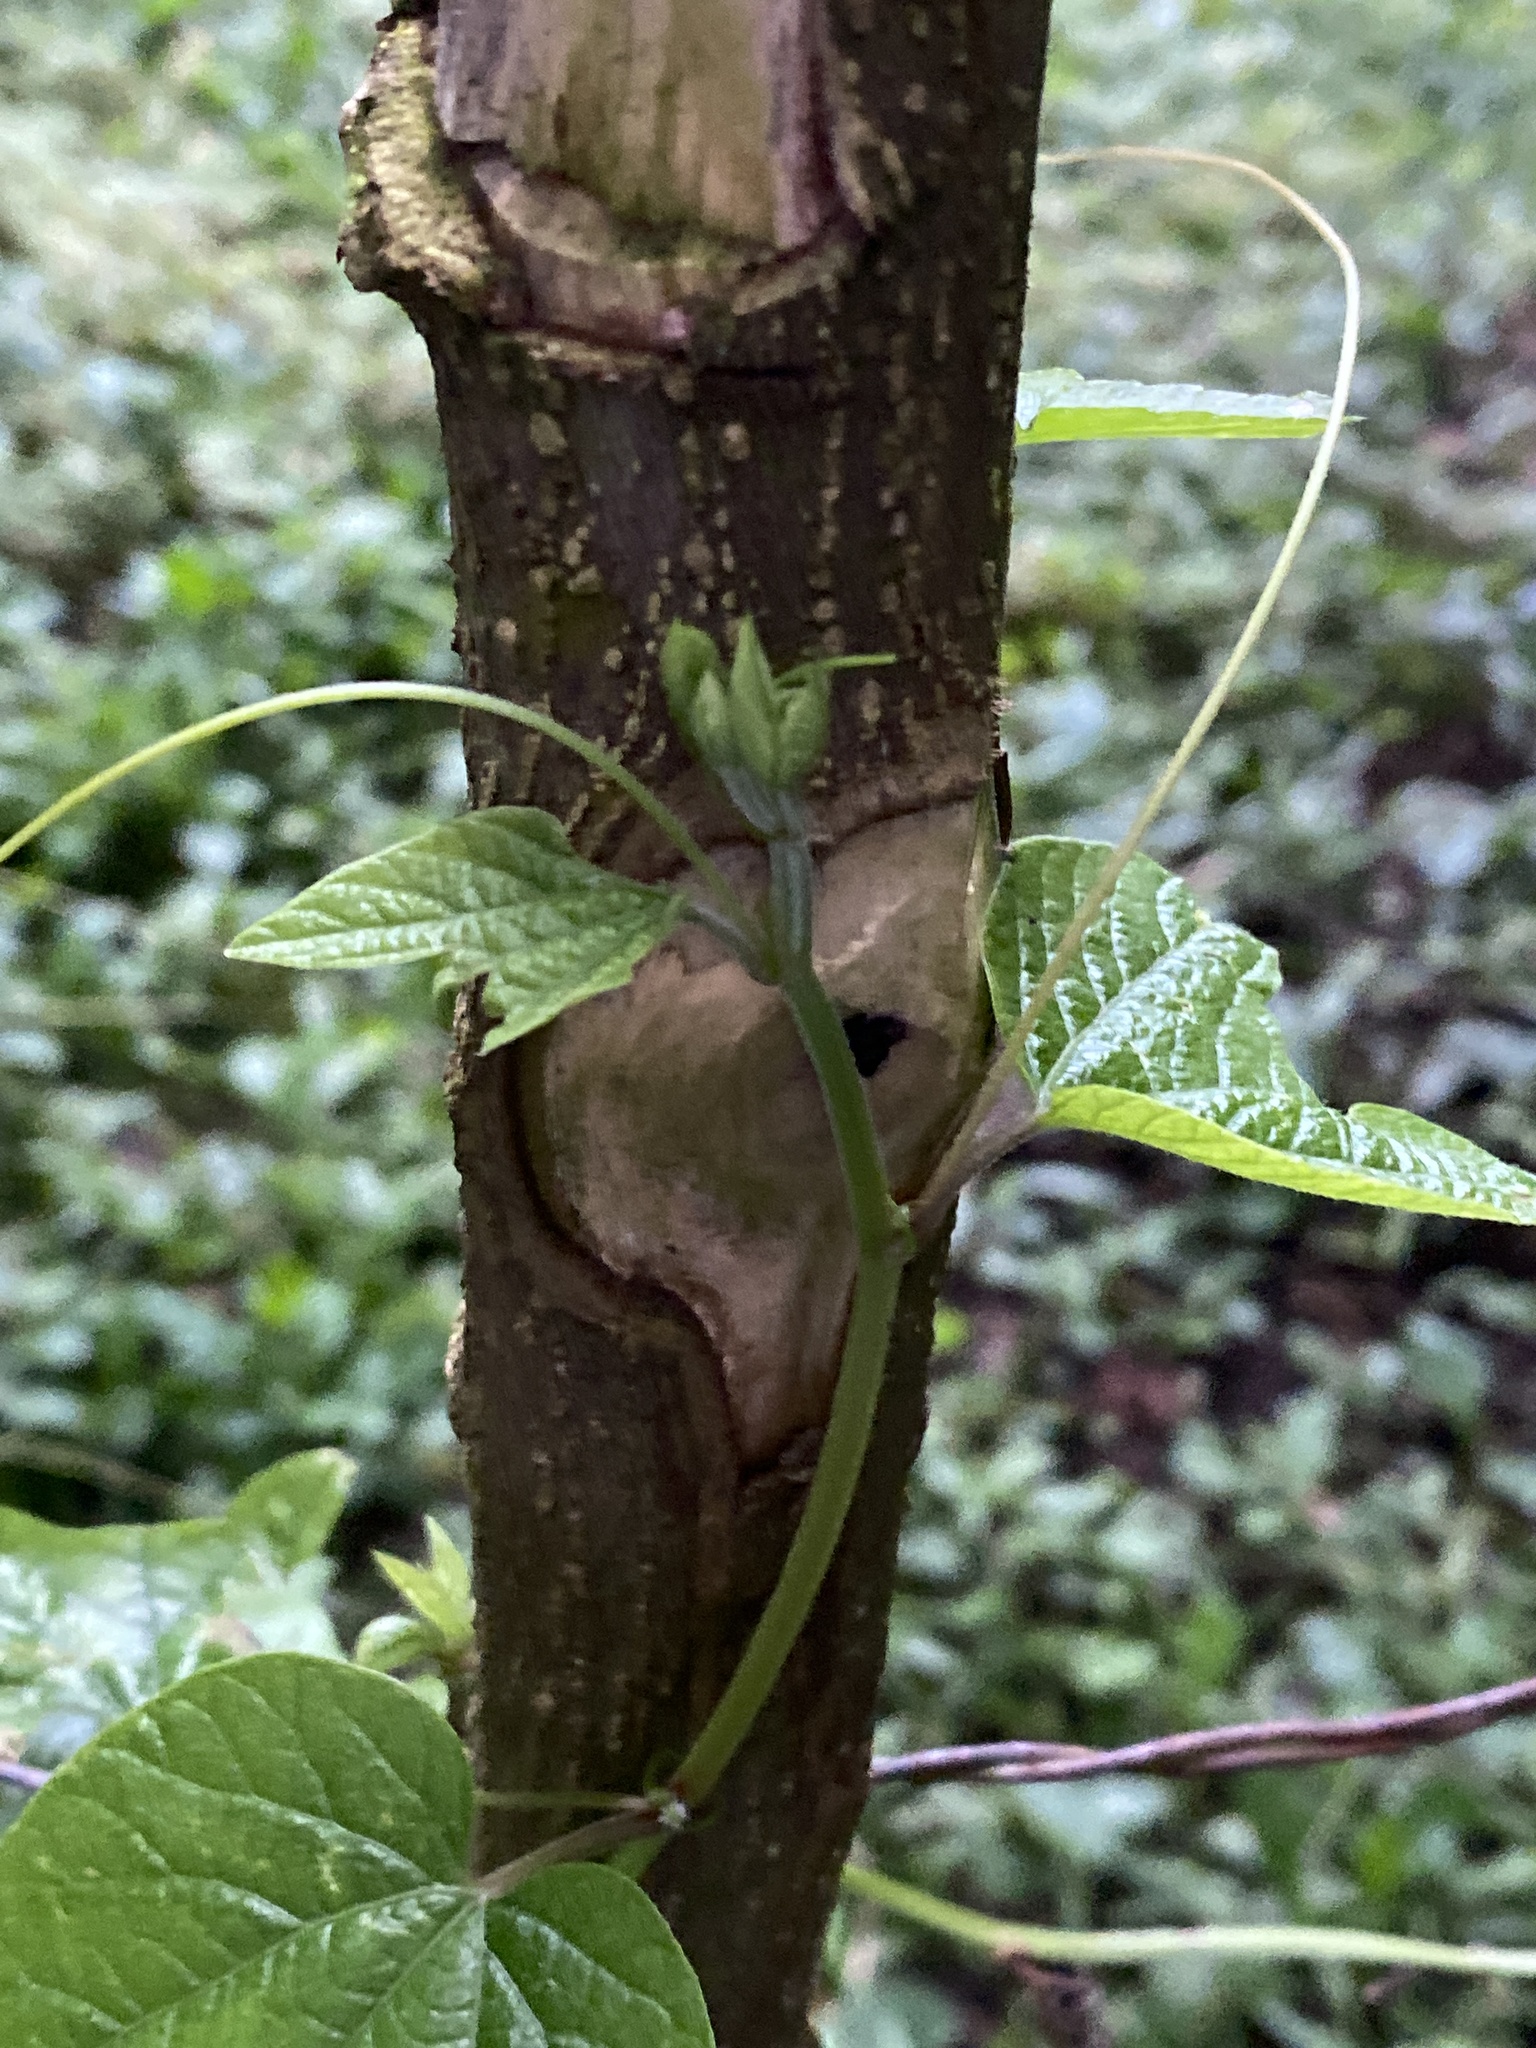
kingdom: Plantae
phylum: Tracheophyta
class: Magnoliopsida
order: Malpighiales
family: Passifloraceae
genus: Passiflora
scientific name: Passiflora capsularis
